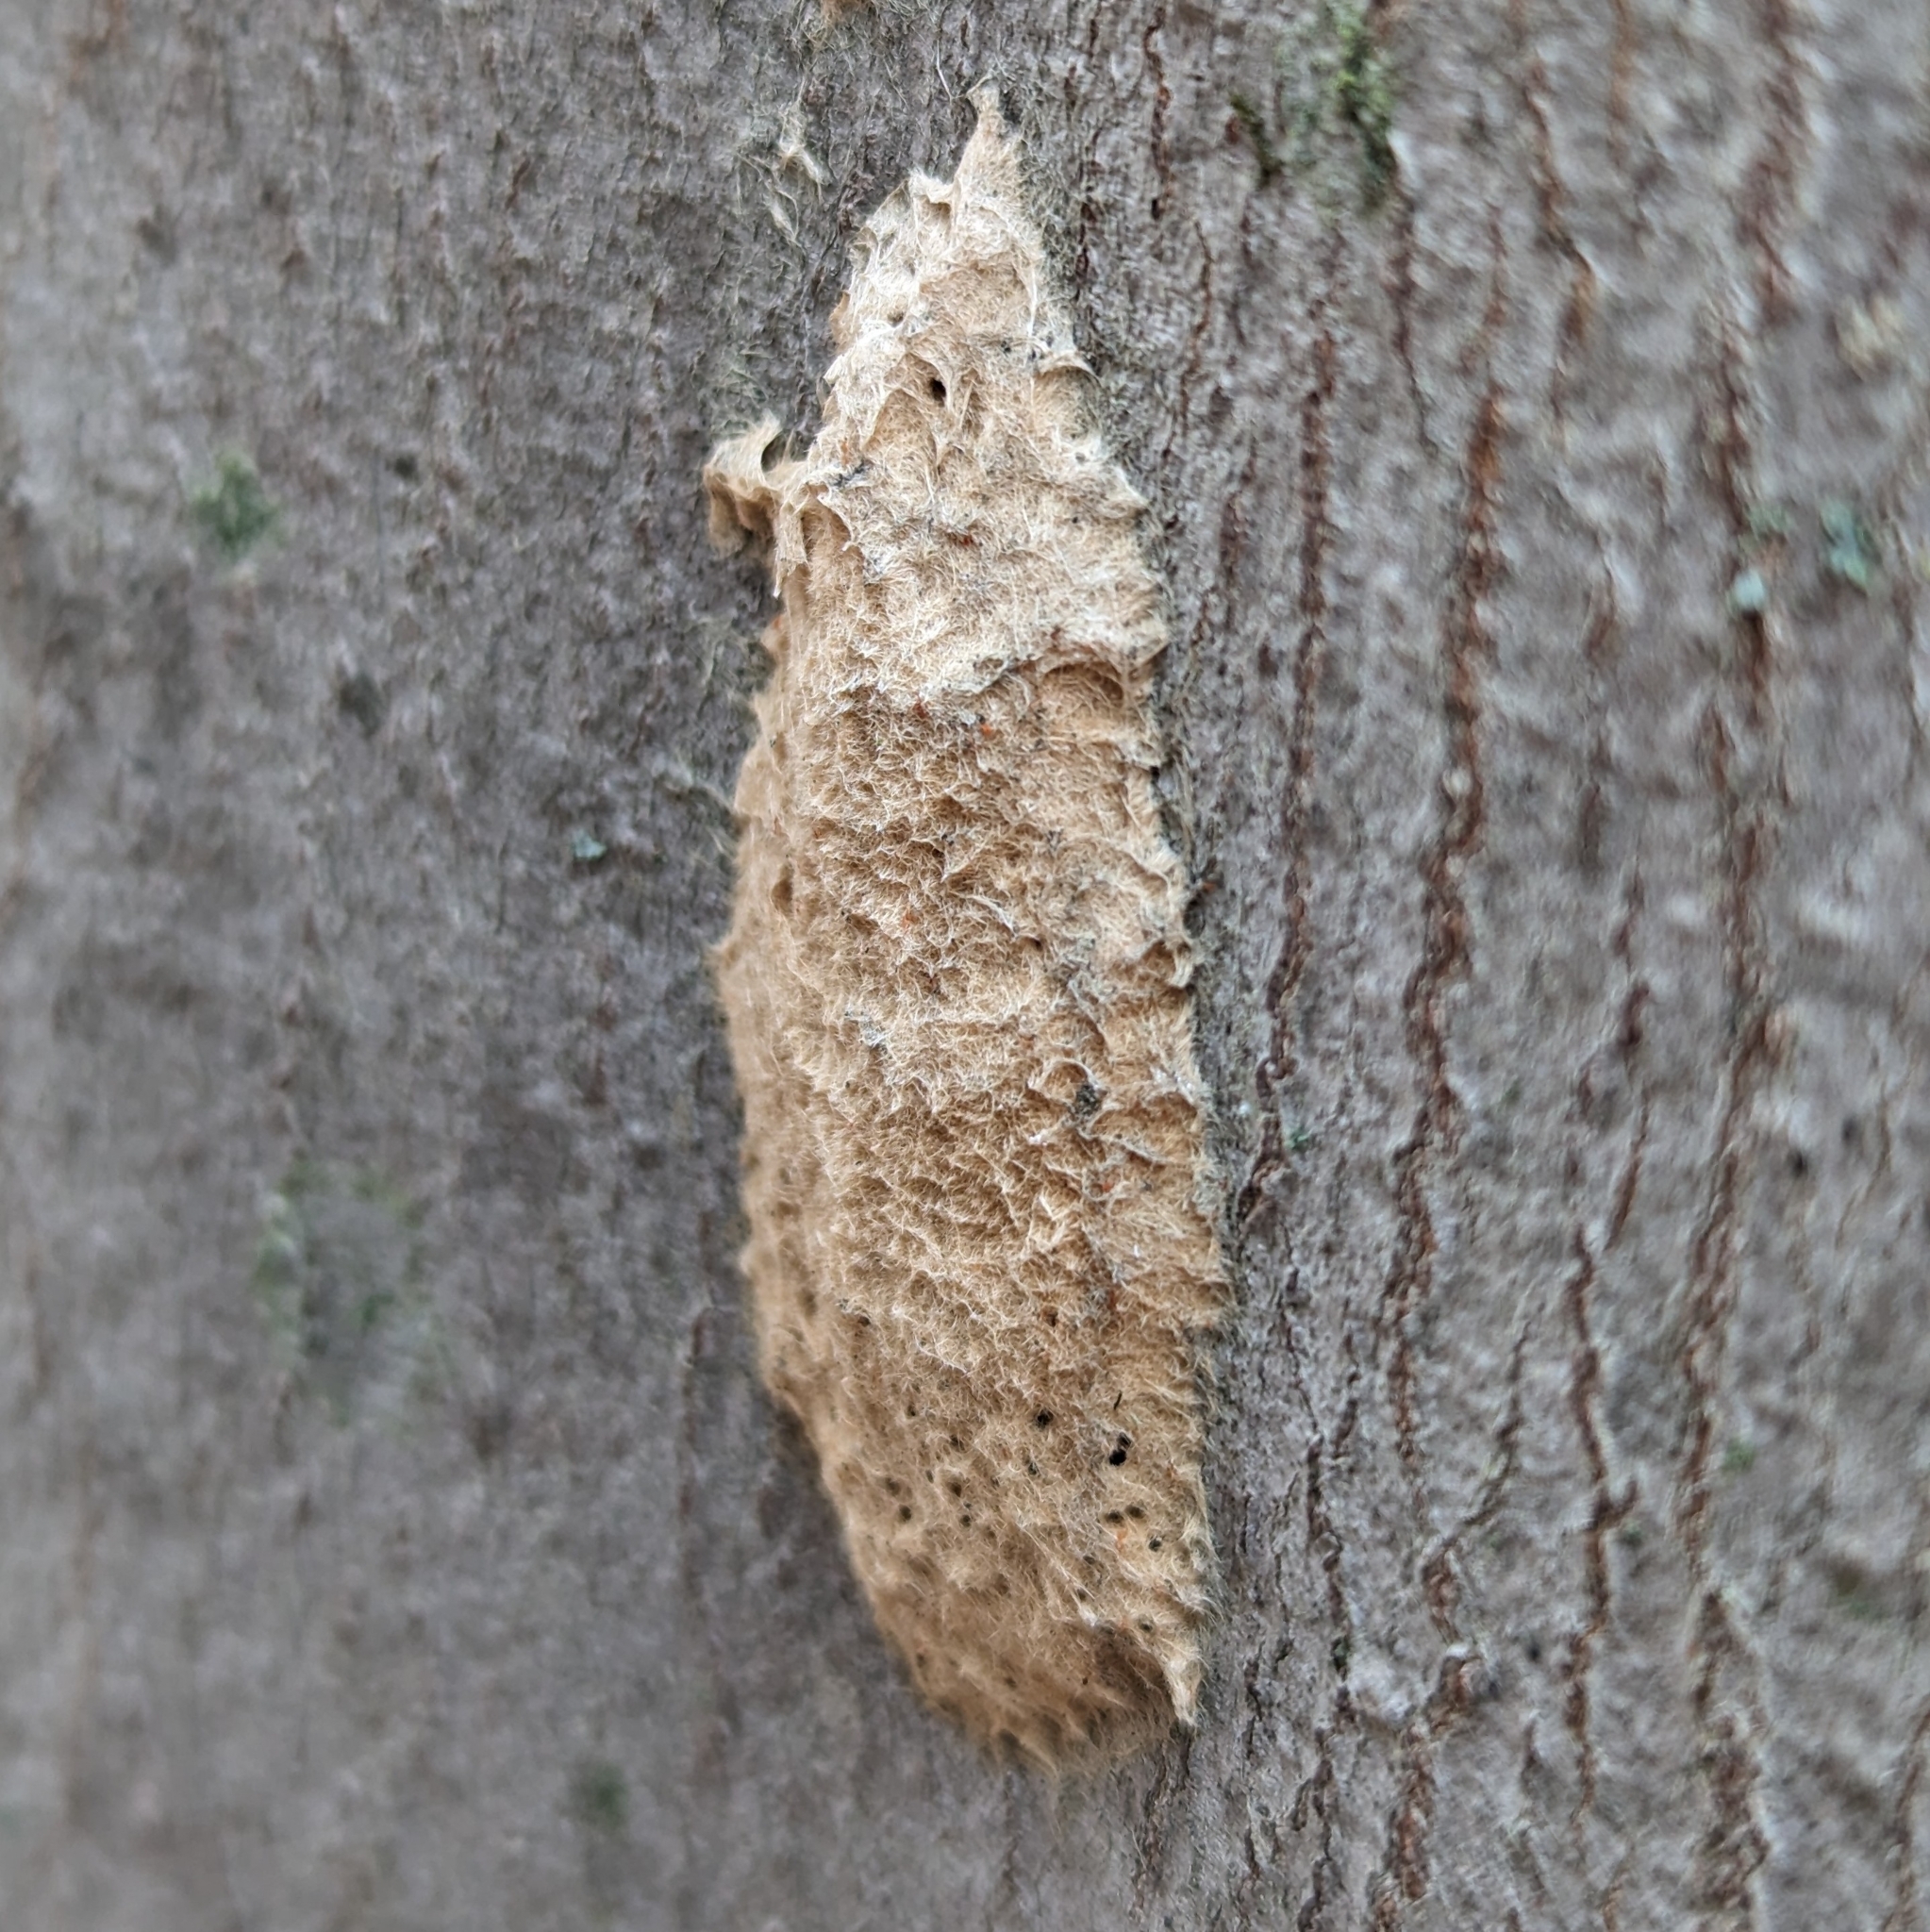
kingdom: Animalia
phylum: Arthropoda
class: Insecta
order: Lepidoptera
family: Erebidae
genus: Lymantria
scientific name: Lymantria dispar
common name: Gypsy moth
